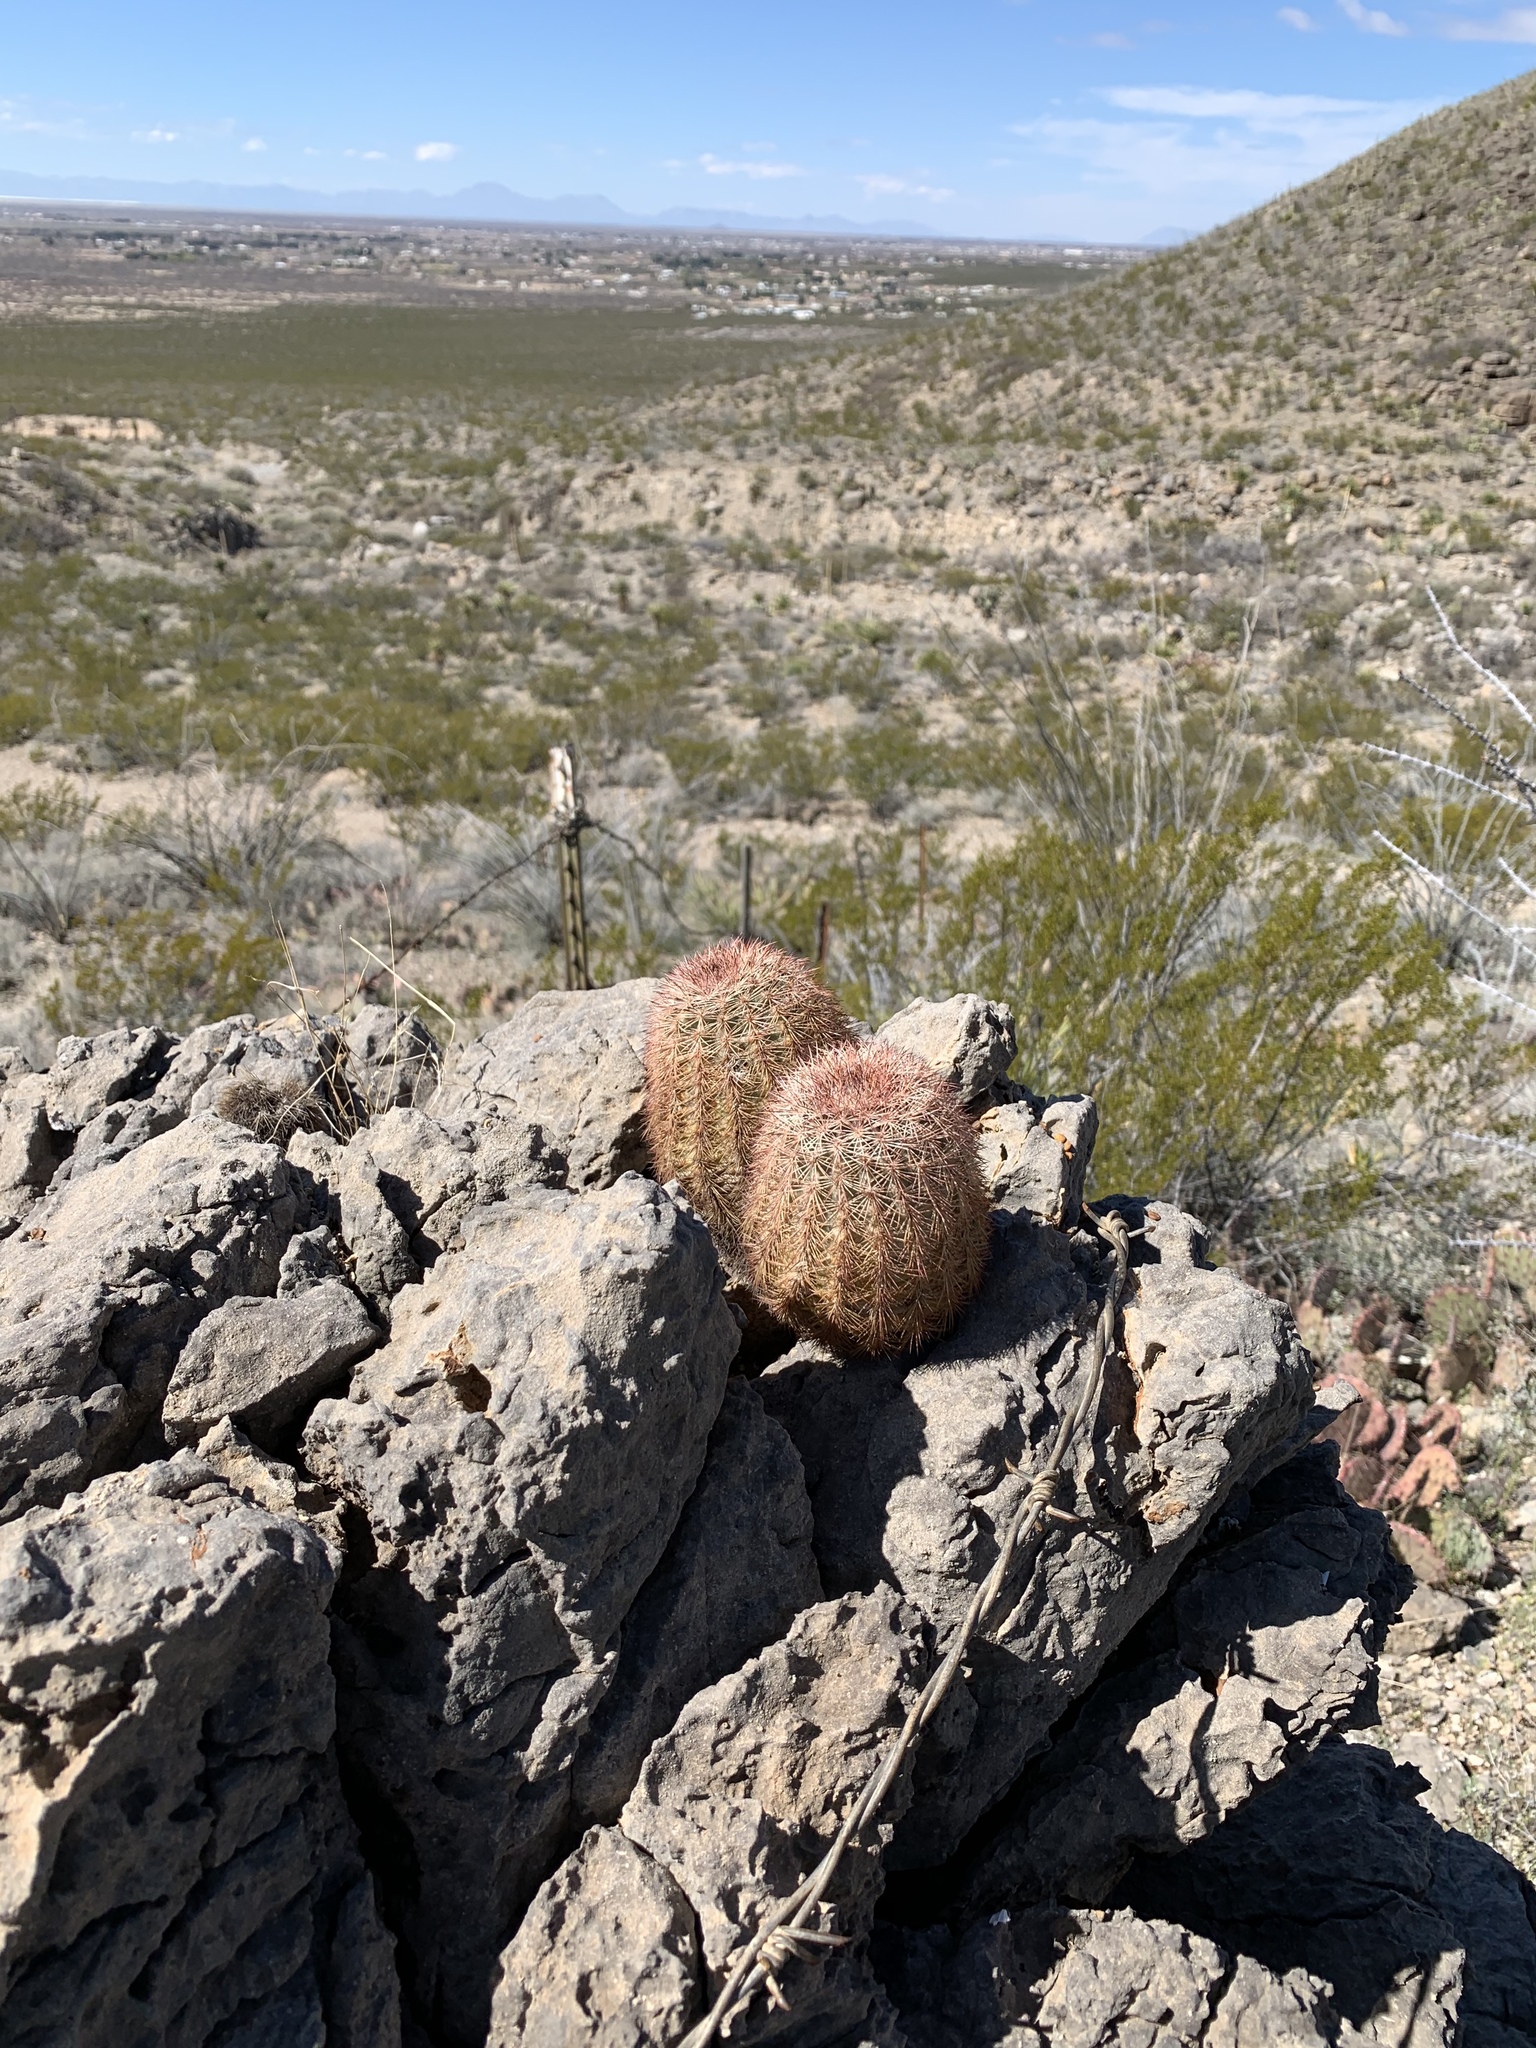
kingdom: Plantae
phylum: Tracheophyta
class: Magnoliopsida
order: Caryophyllales
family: Cactaceae
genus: Echinocereus
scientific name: Echinocereus dasyacanthus
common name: Spiny hedgehog cactus
